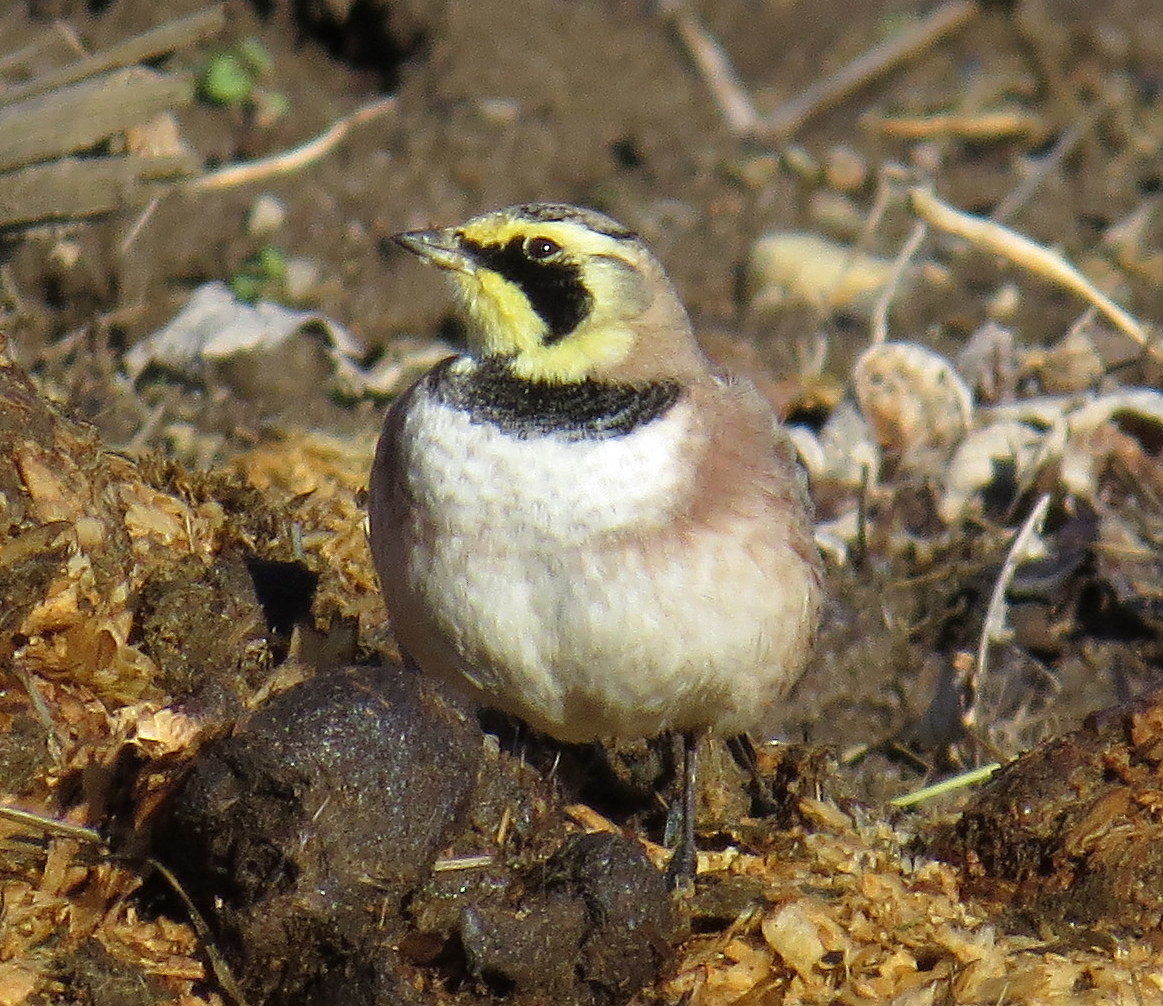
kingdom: Animalia
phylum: Chordata
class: Aves
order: Passeriformes
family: Alaudidae
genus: Eremophila
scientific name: Eremophila alpestris
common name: Horned lark
